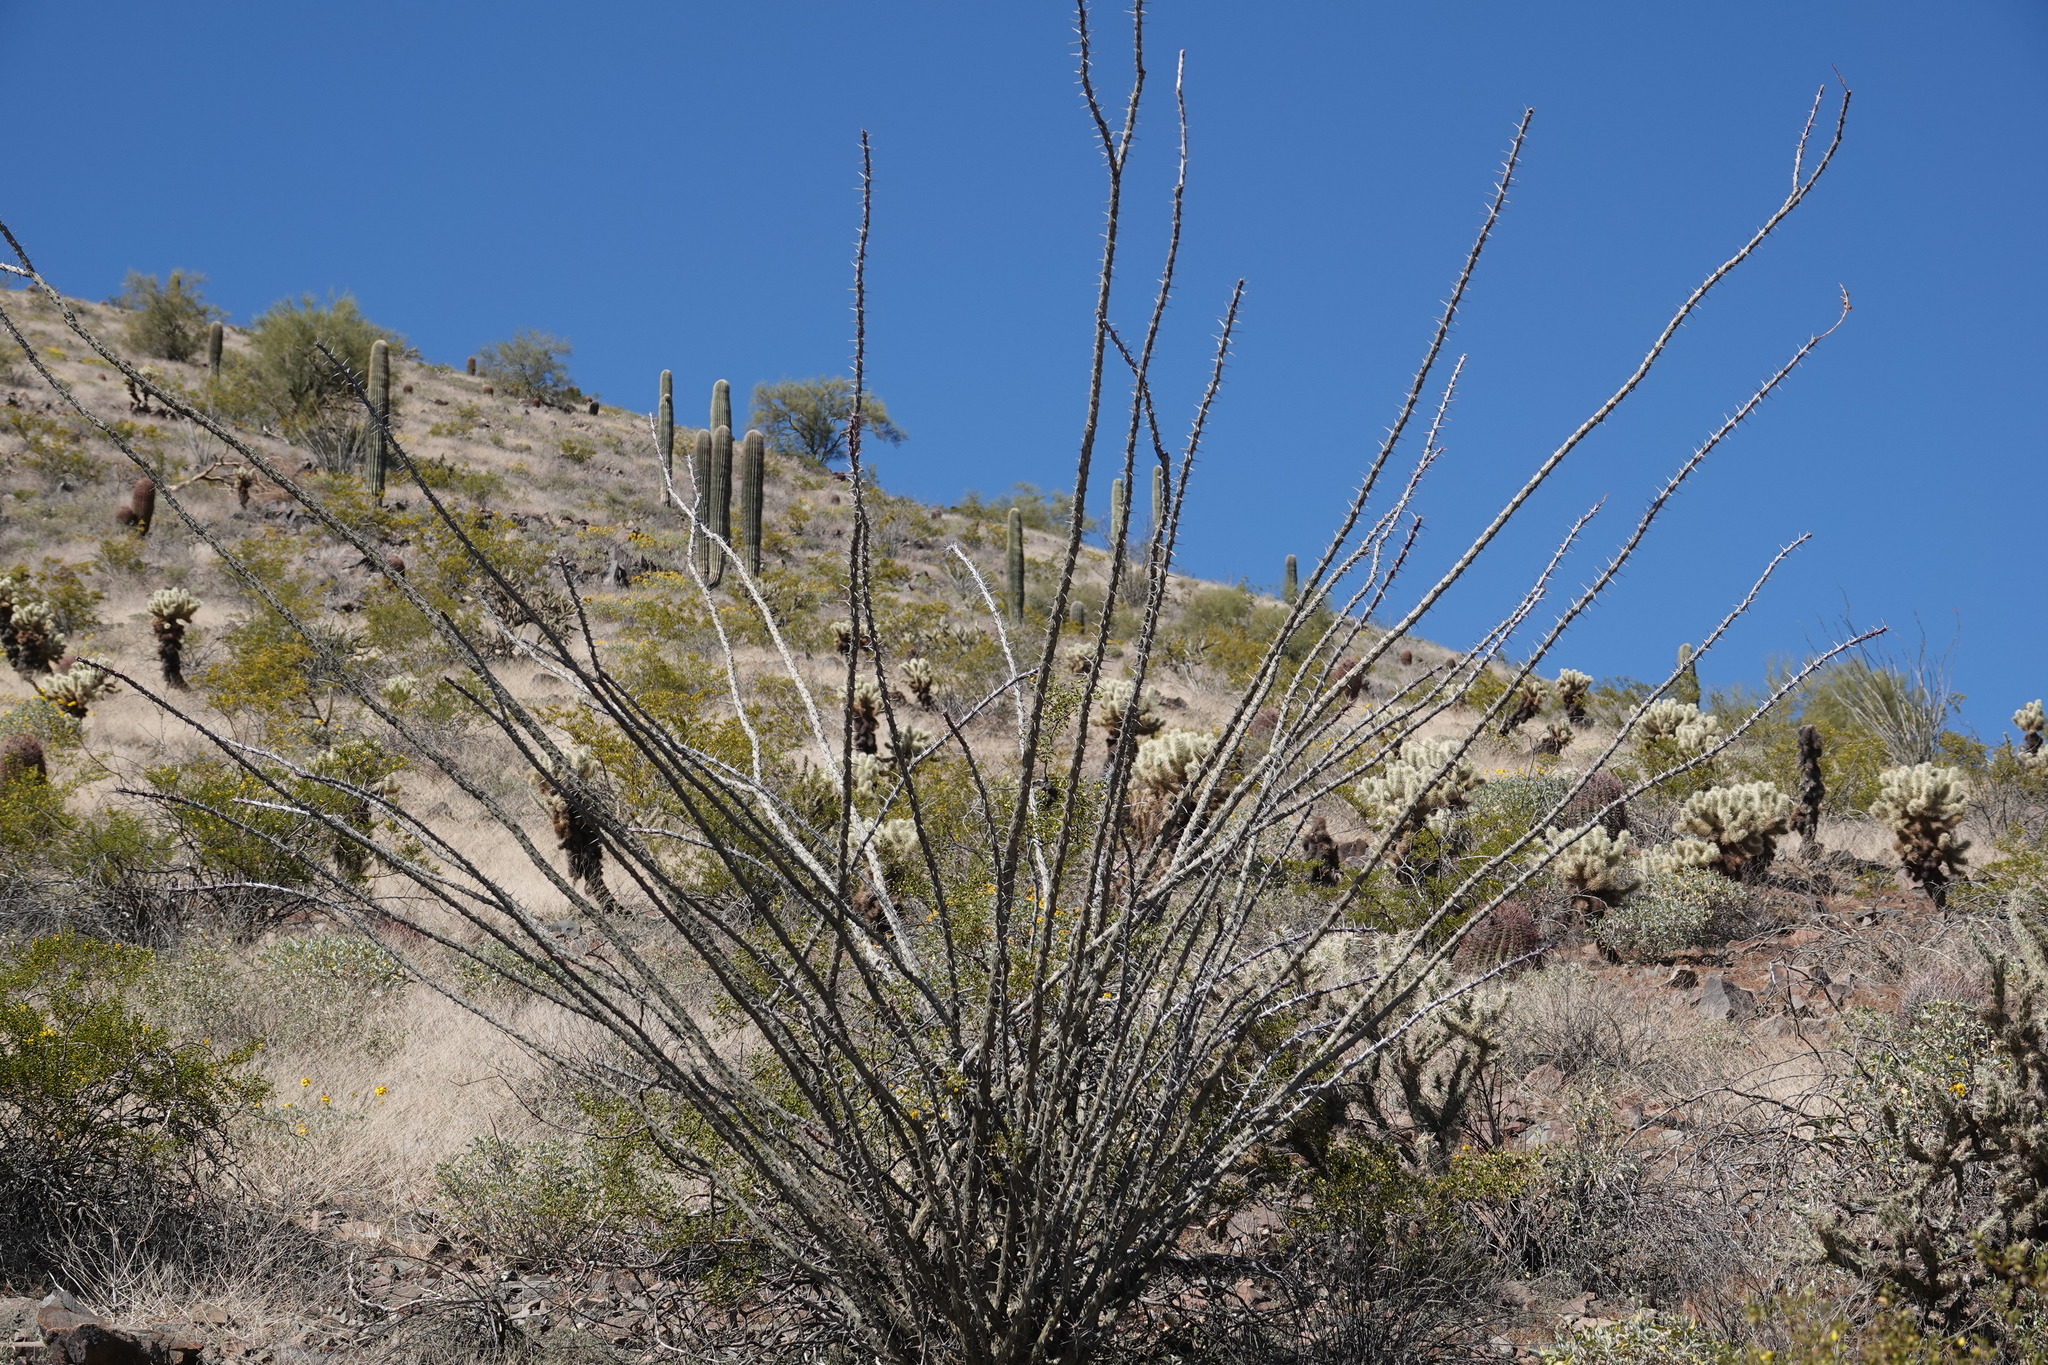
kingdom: Plantae
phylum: Tracheophyta
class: Magnoliopsida
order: Ericales
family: Fouquieriaceae
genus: Fouquieria
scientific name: Fouquieria splendens
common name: Vine-cactus
